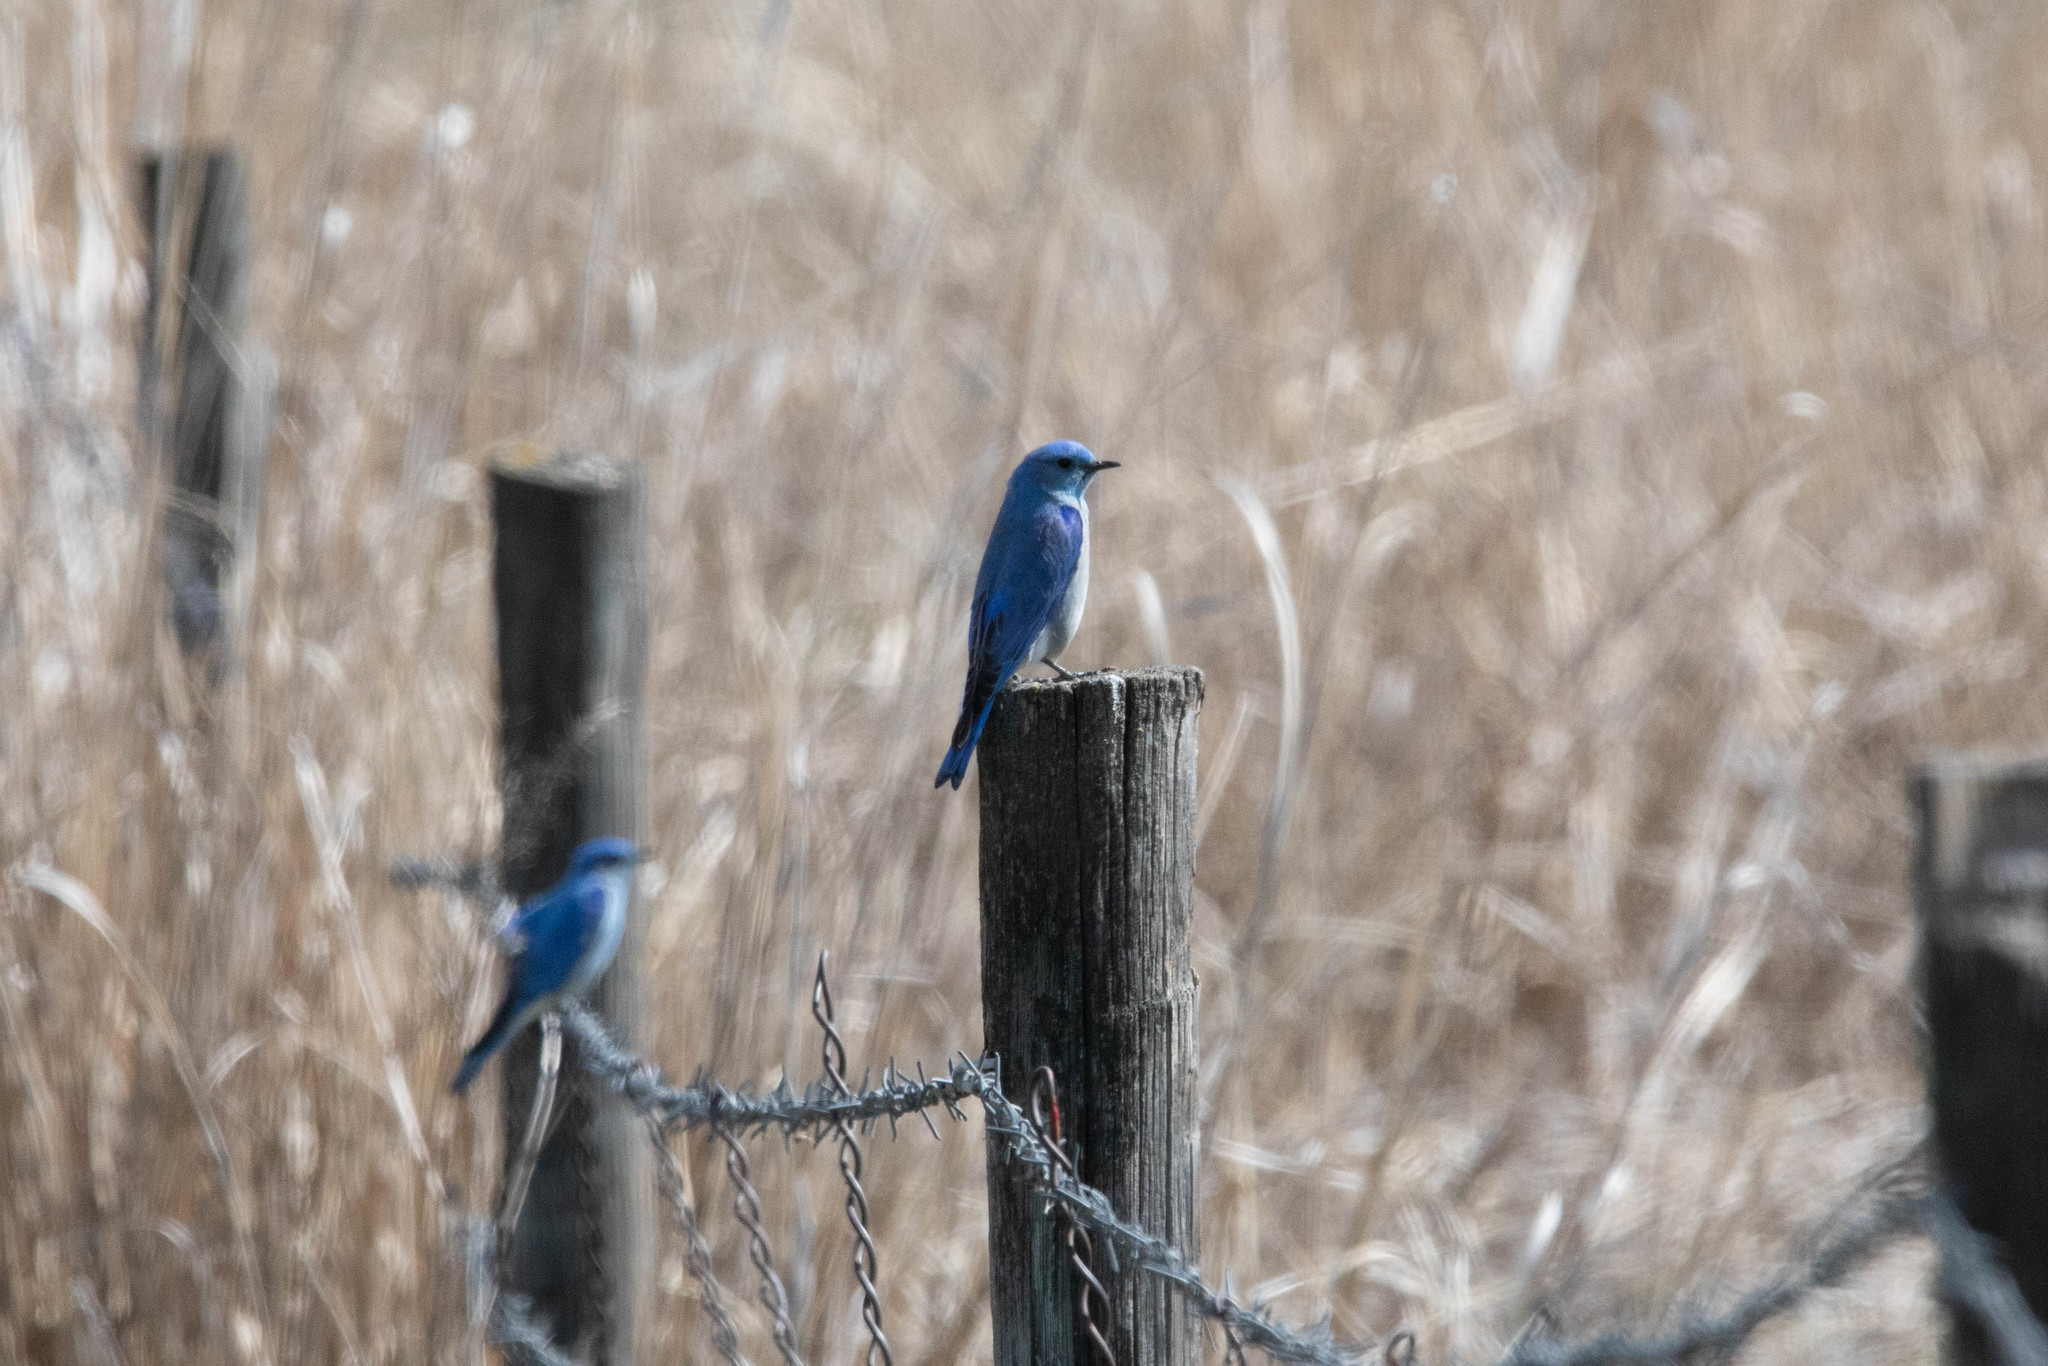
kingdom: Animalia
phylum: Chordata
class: Aves
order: Passeriformes
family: Turdidae
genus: Sialia
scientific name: Sialia currucoides
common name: Mountain bluebird
